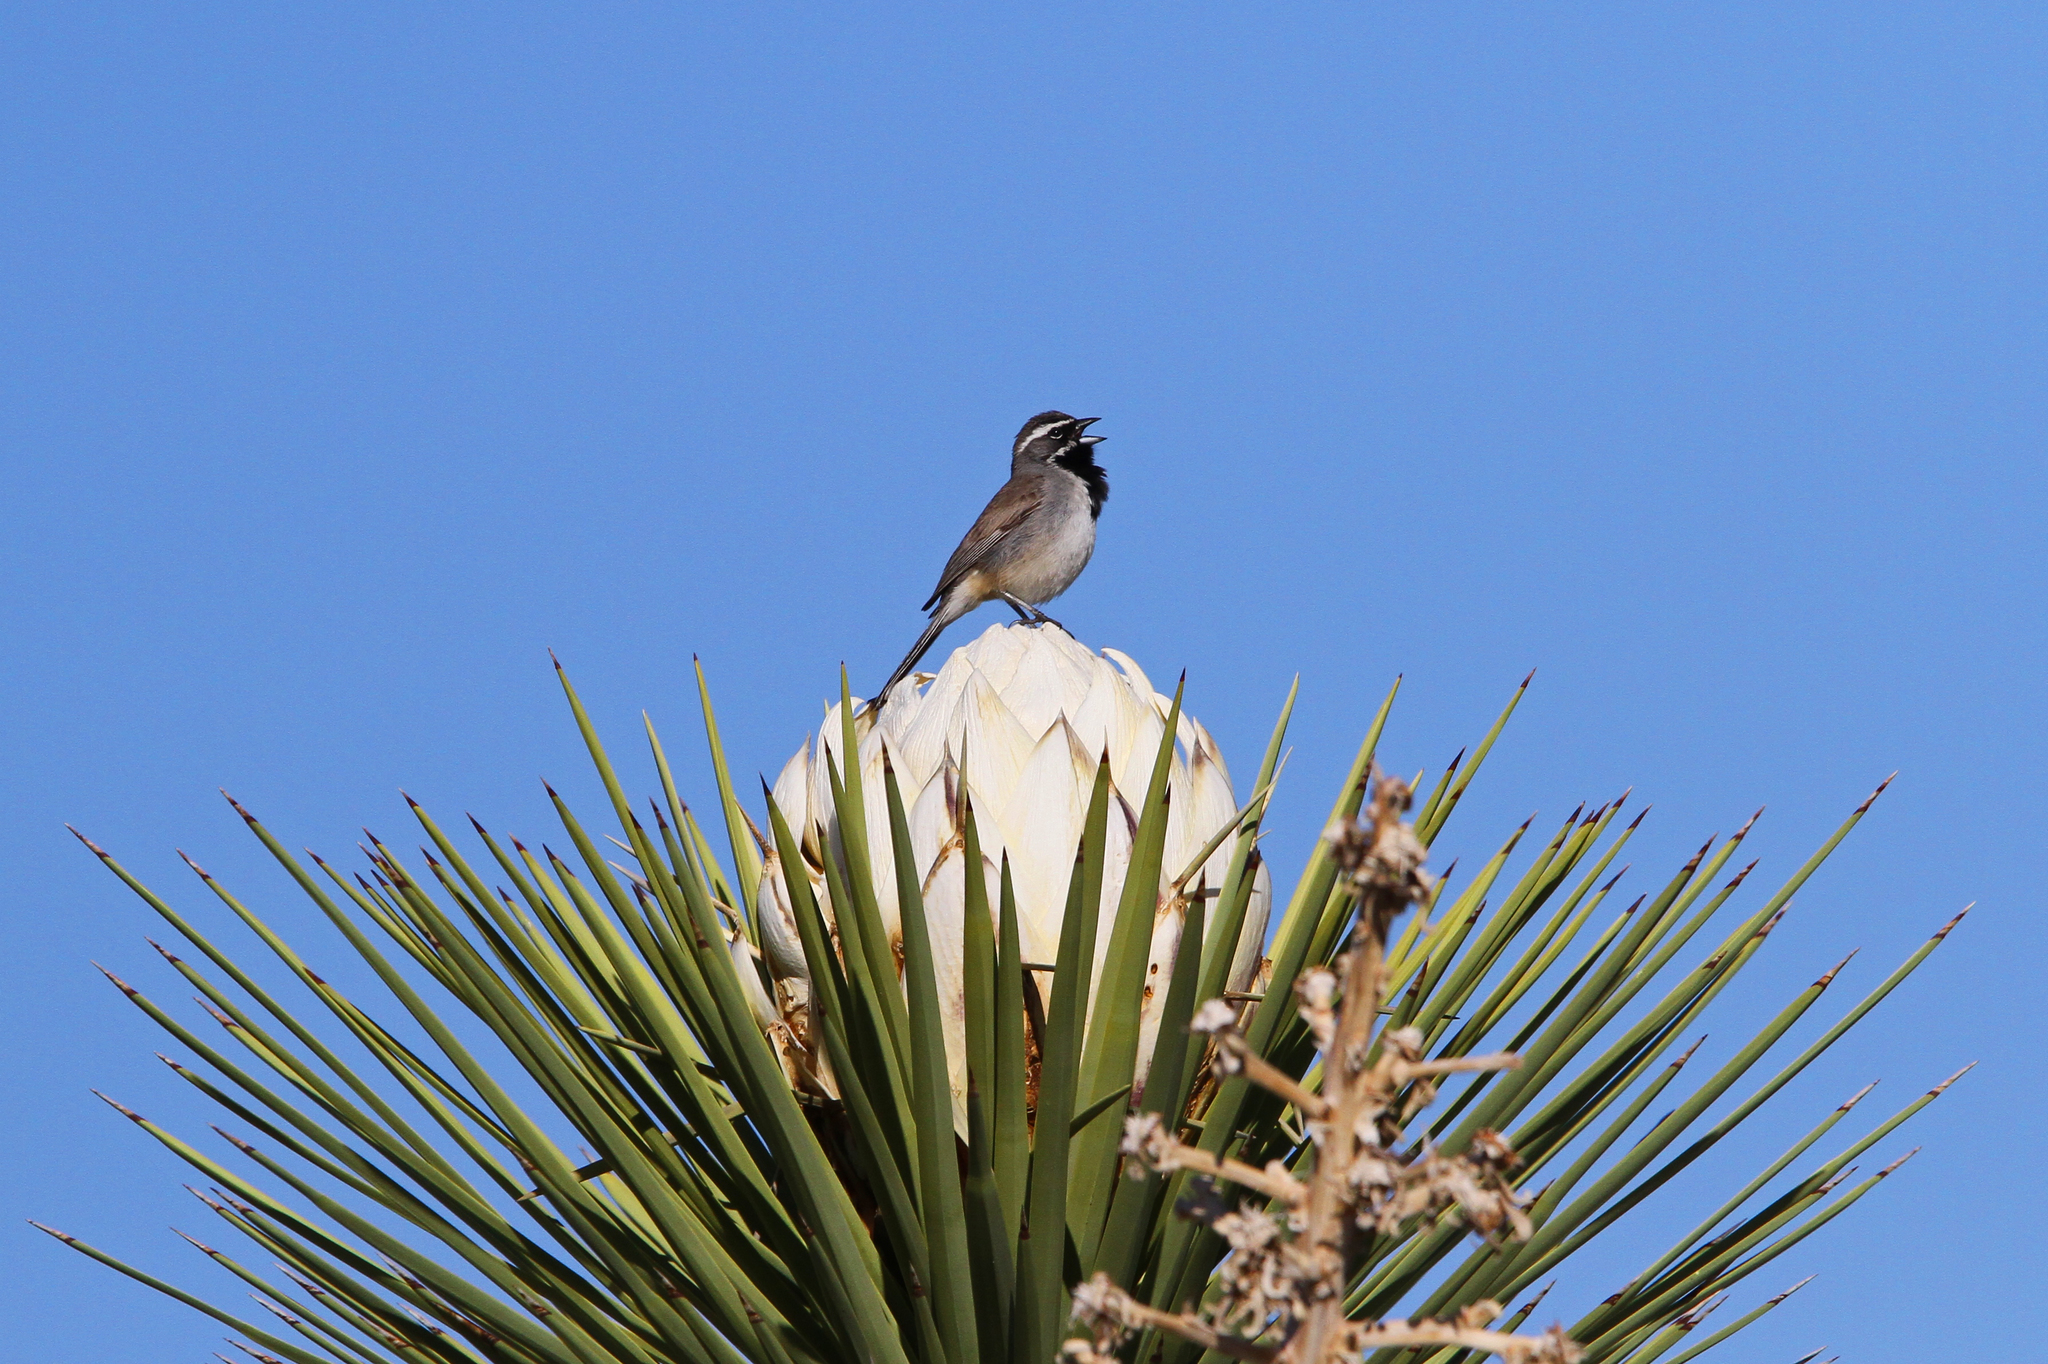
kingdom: Animalia
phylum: Chordata
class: Aves
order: Passeriformes
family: Passerellidae
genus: Amphispiza
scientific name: Amphispiza bilineata
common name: Black-throated sparrow
